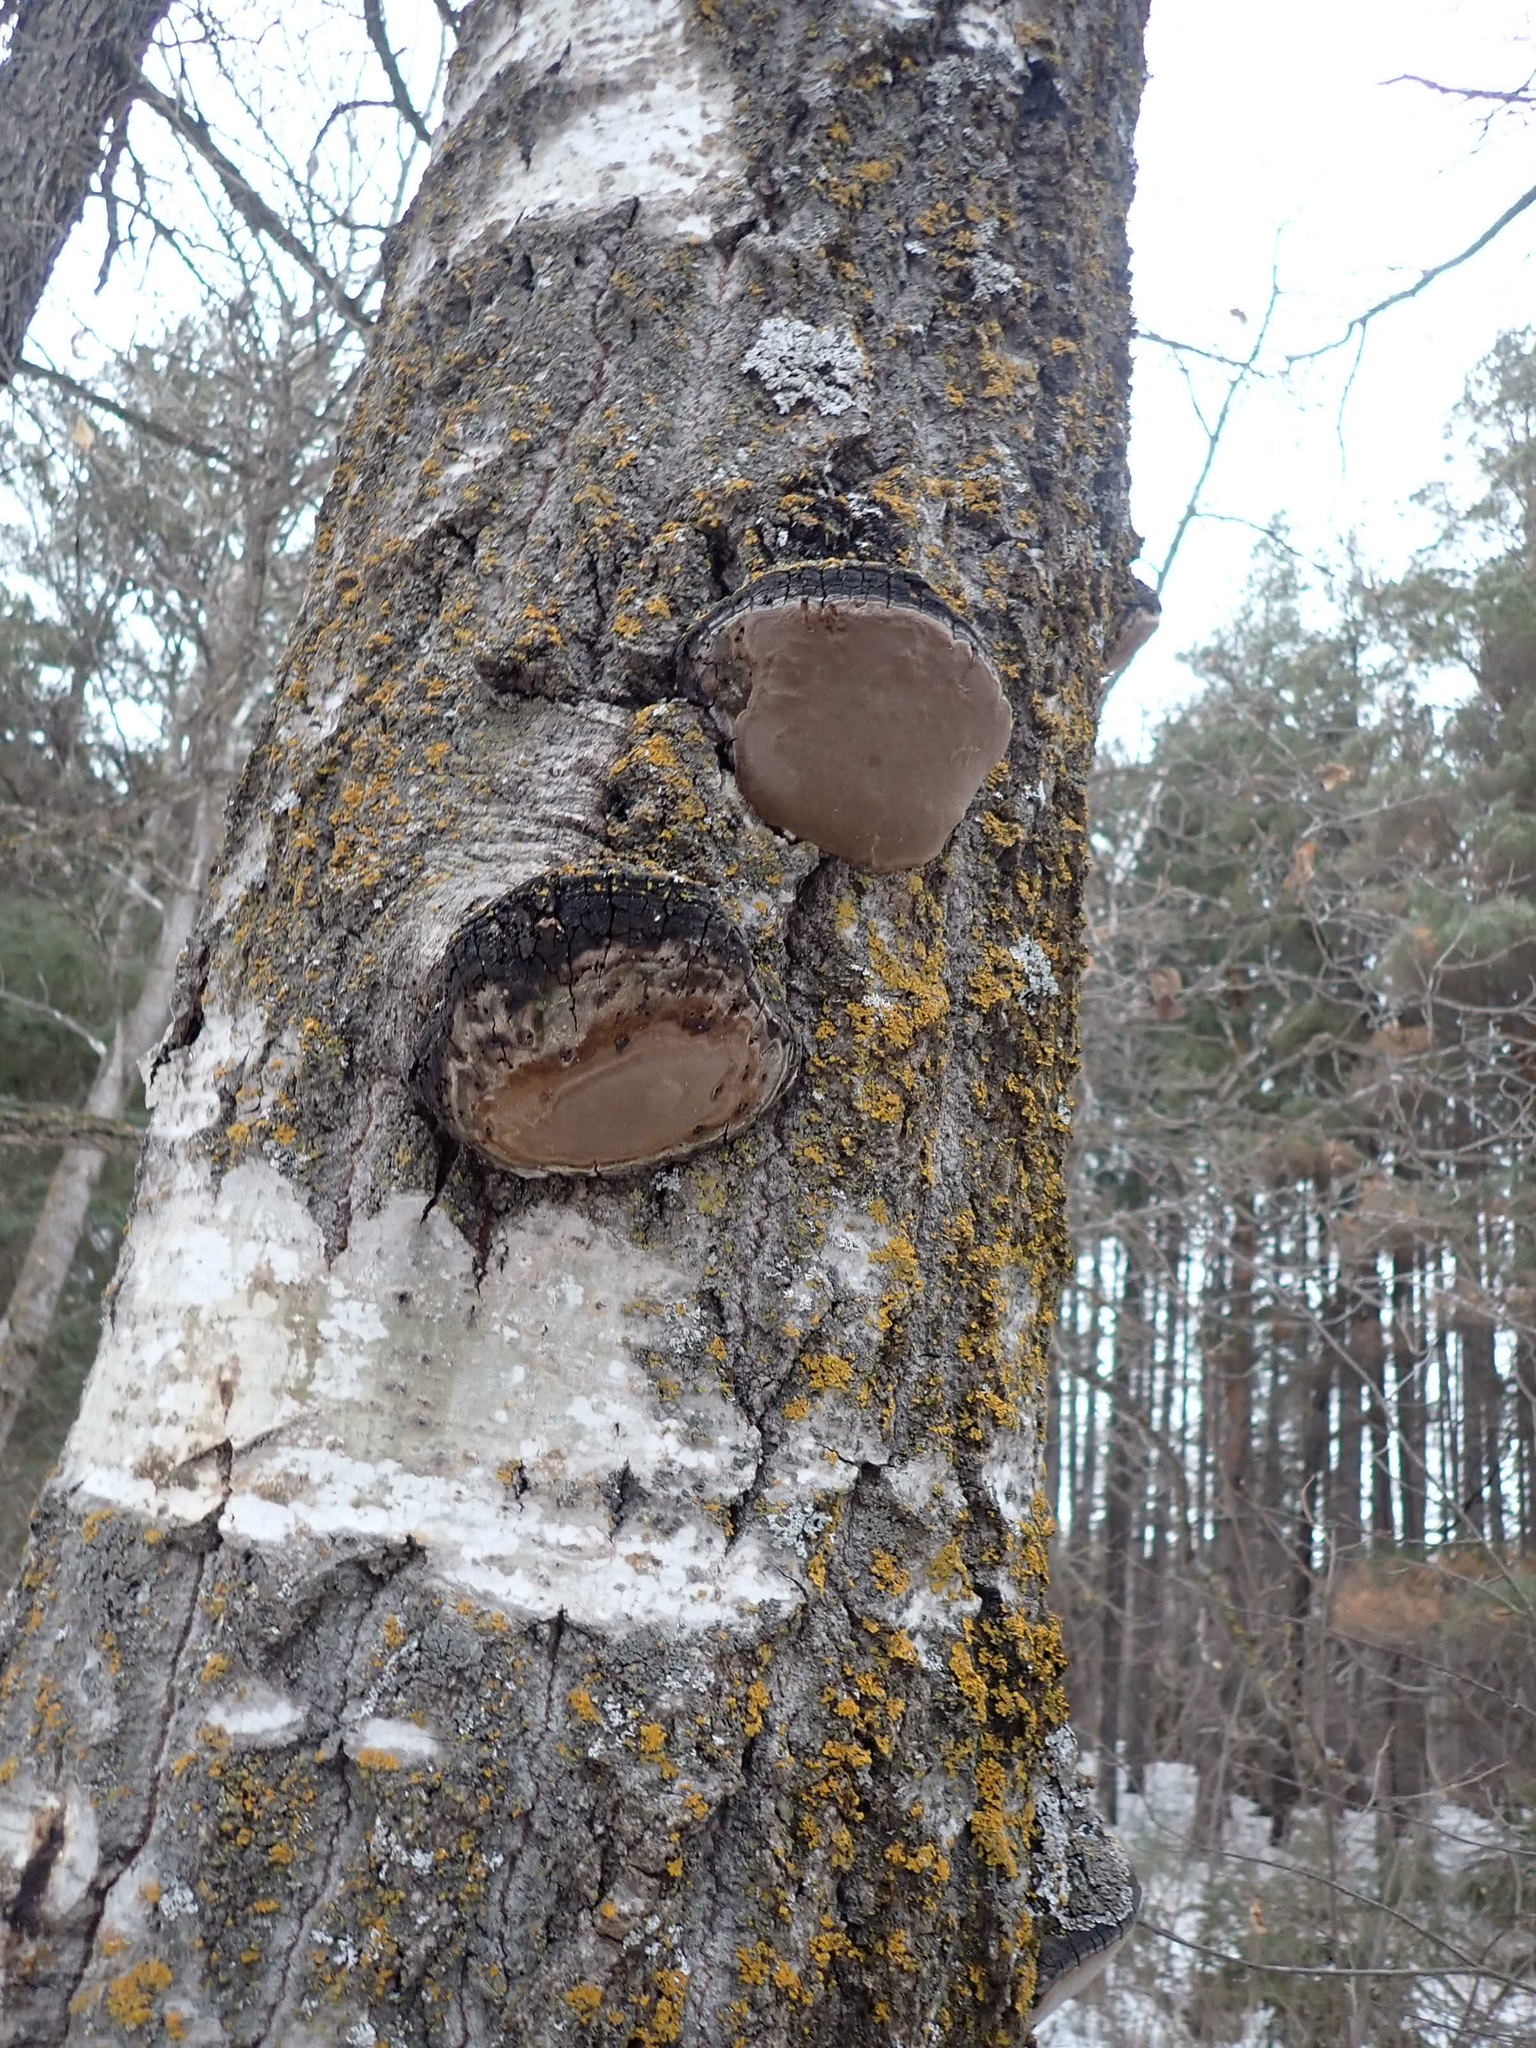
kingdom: Fungi
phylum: Basidiomycota
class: Agaricomycetes
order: Hymenochaetales
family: Hymenochaetaceae
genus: Phellinus
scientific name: Phellinus tremulae
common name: Aspen bracket
